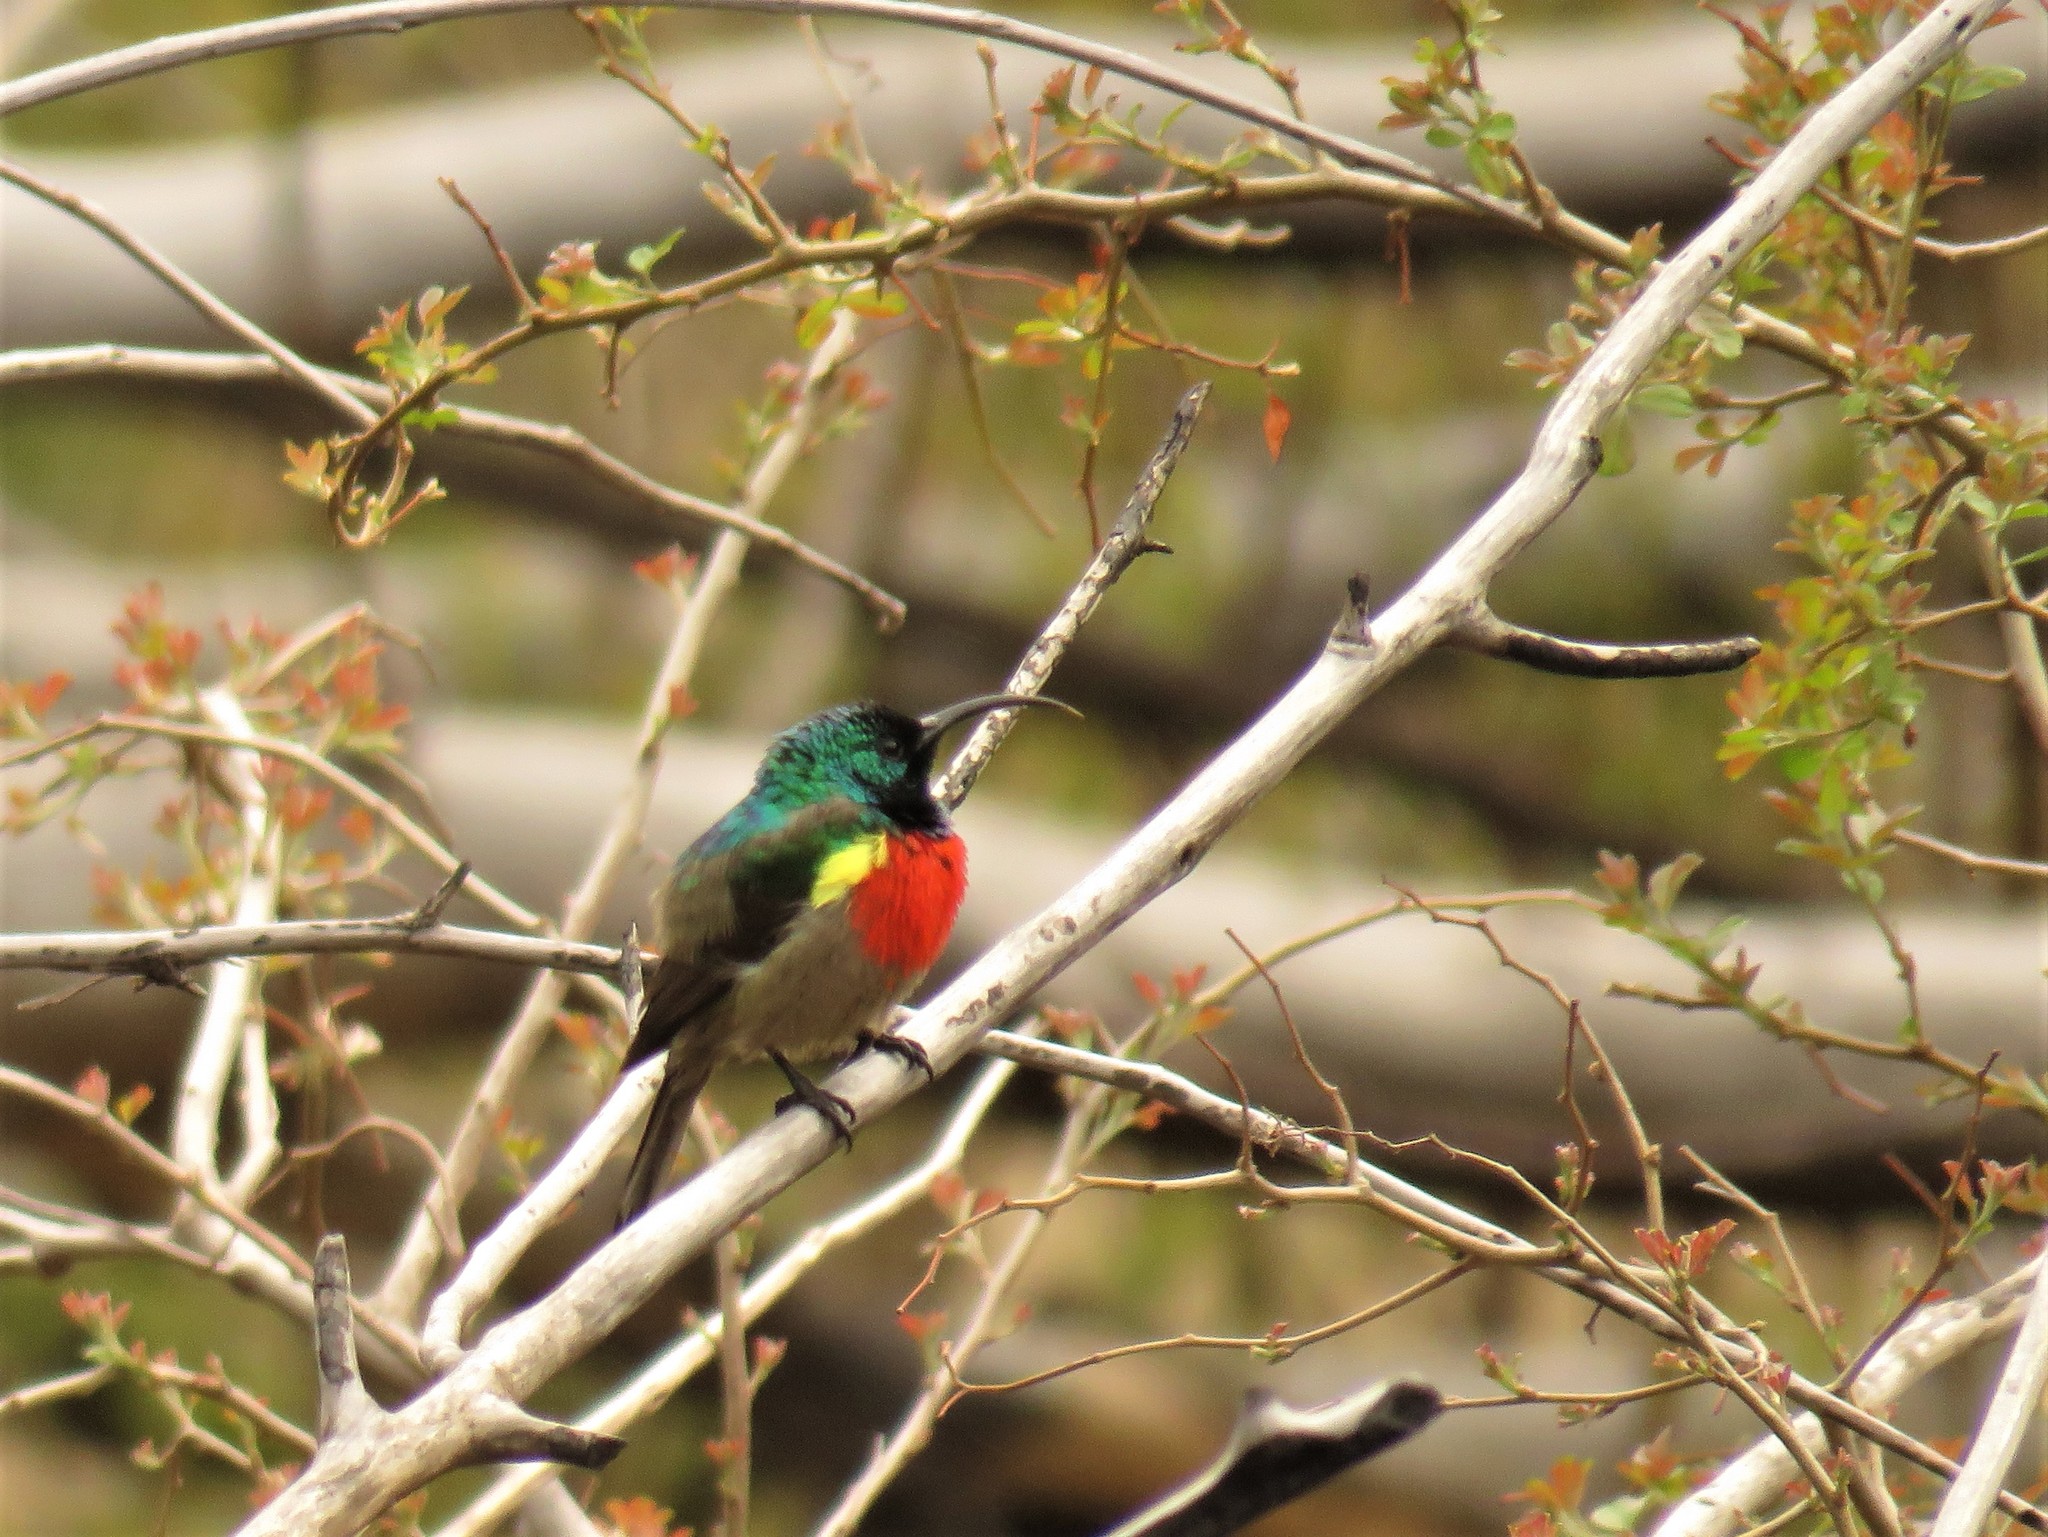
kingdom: Animalia
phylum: Chordata
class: Aves
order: Passeriformes
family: Nectariniidae
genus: Cinnyris
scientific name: Cinnyris afer
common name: Greater double-collared sunbird
